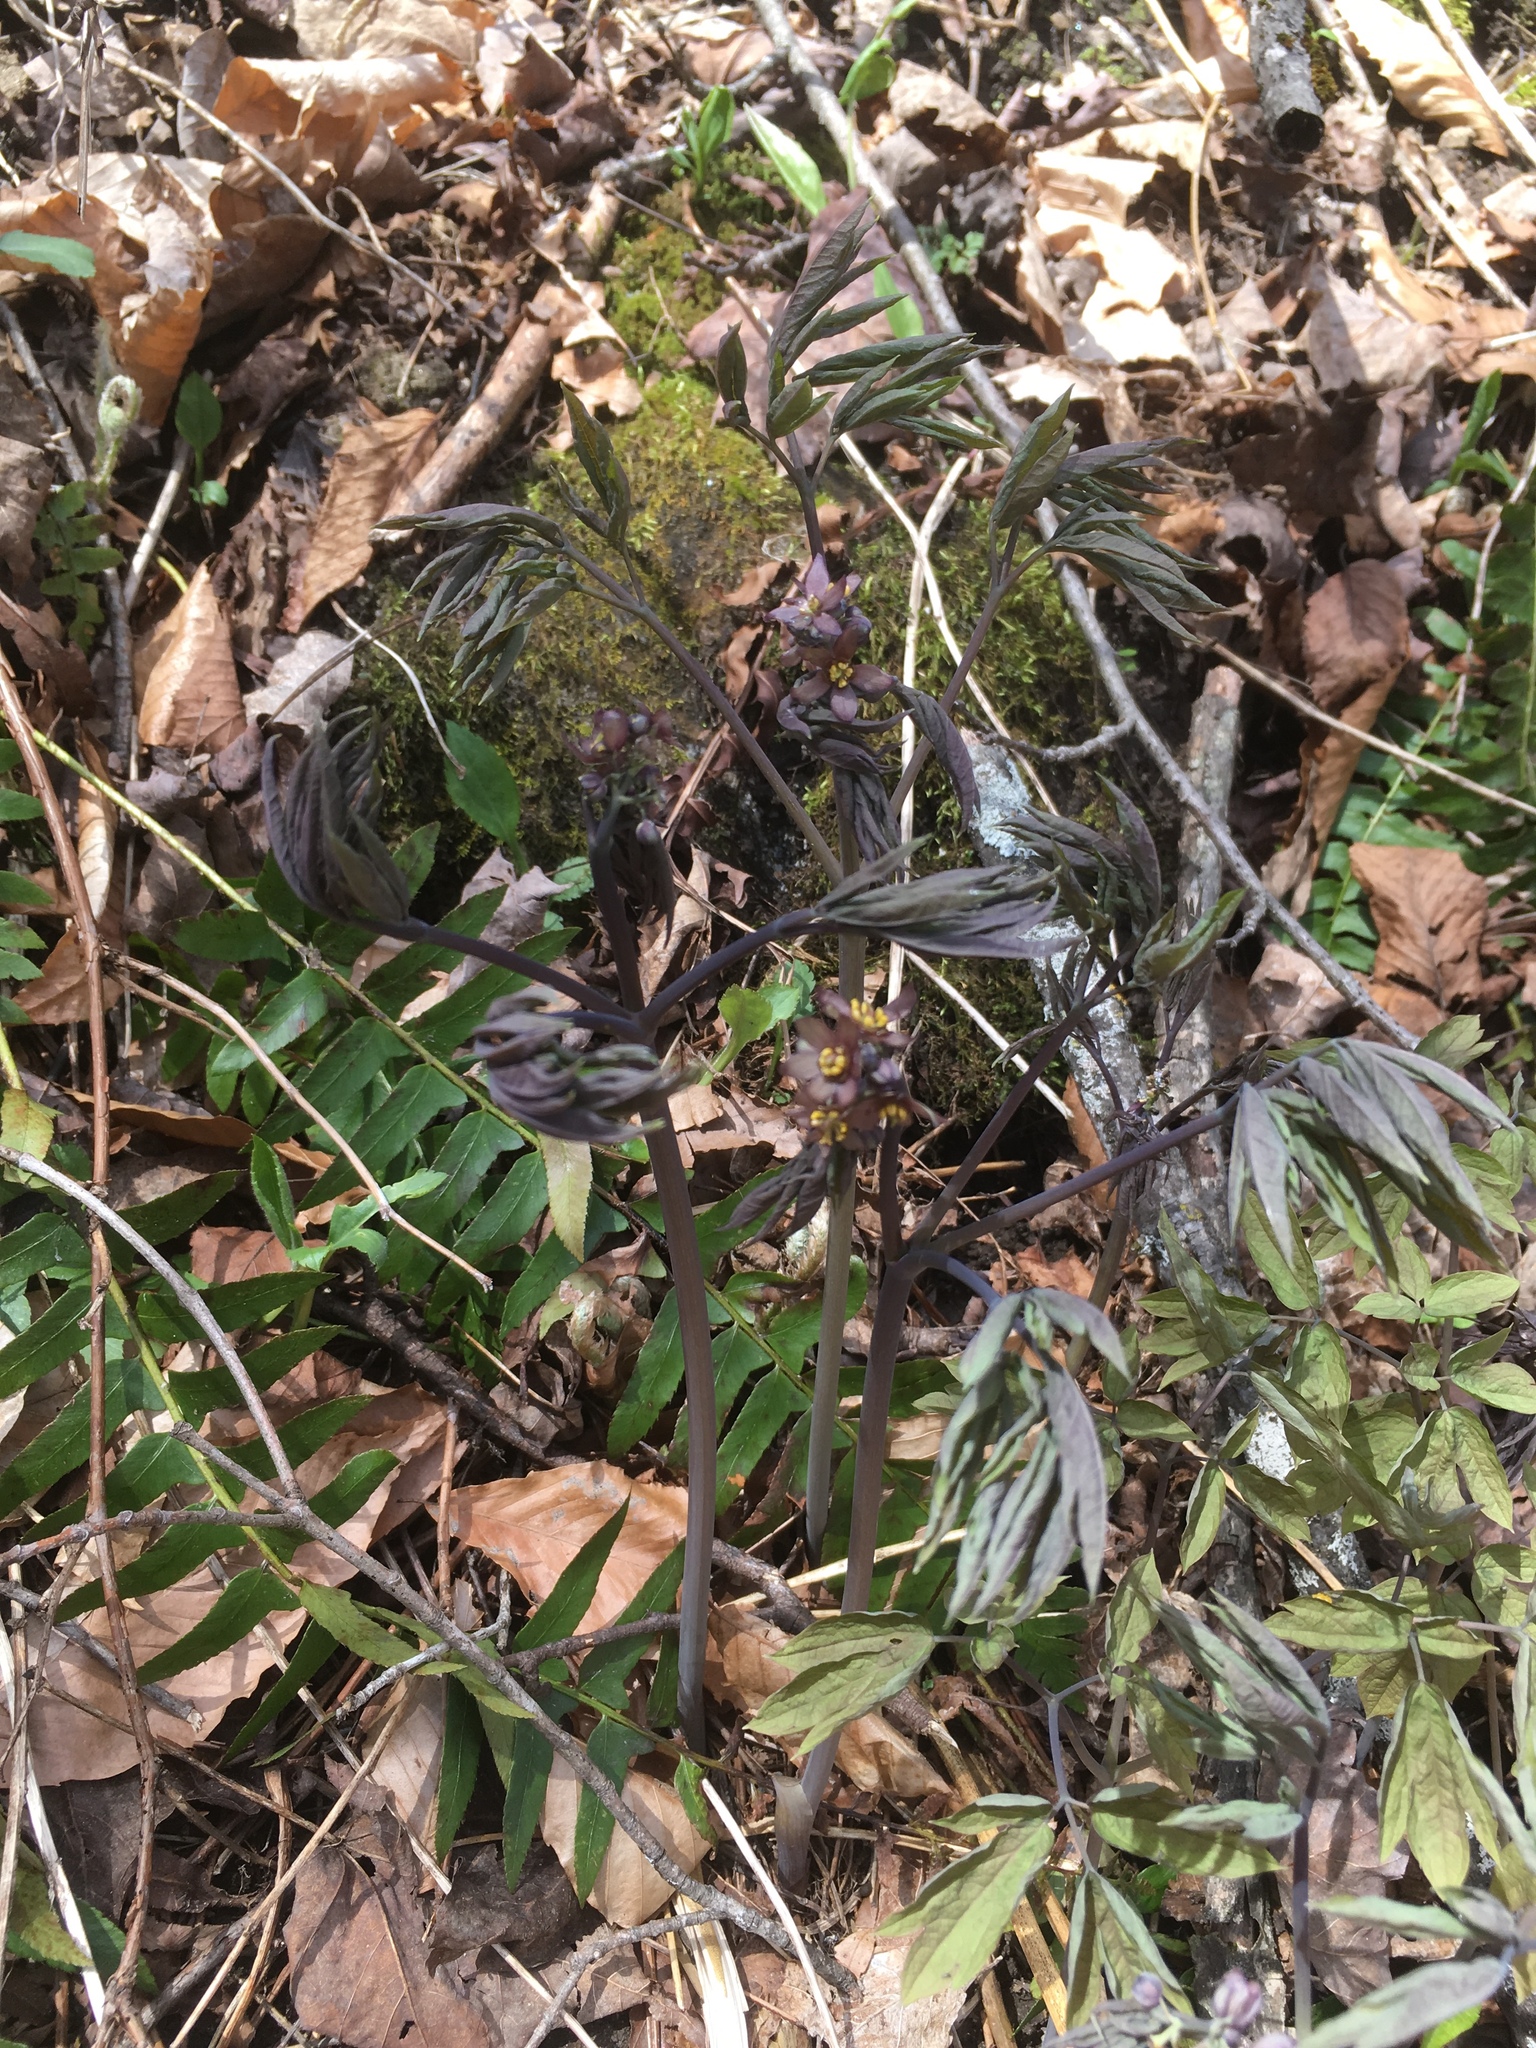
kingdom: Plantae
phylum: Tracheophyta
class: Magnoliopsida
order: Ranunculales
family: Berberidaceae
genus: Caulophyllum
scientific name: Caulophyllum giganteum
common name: Blue cohosh
